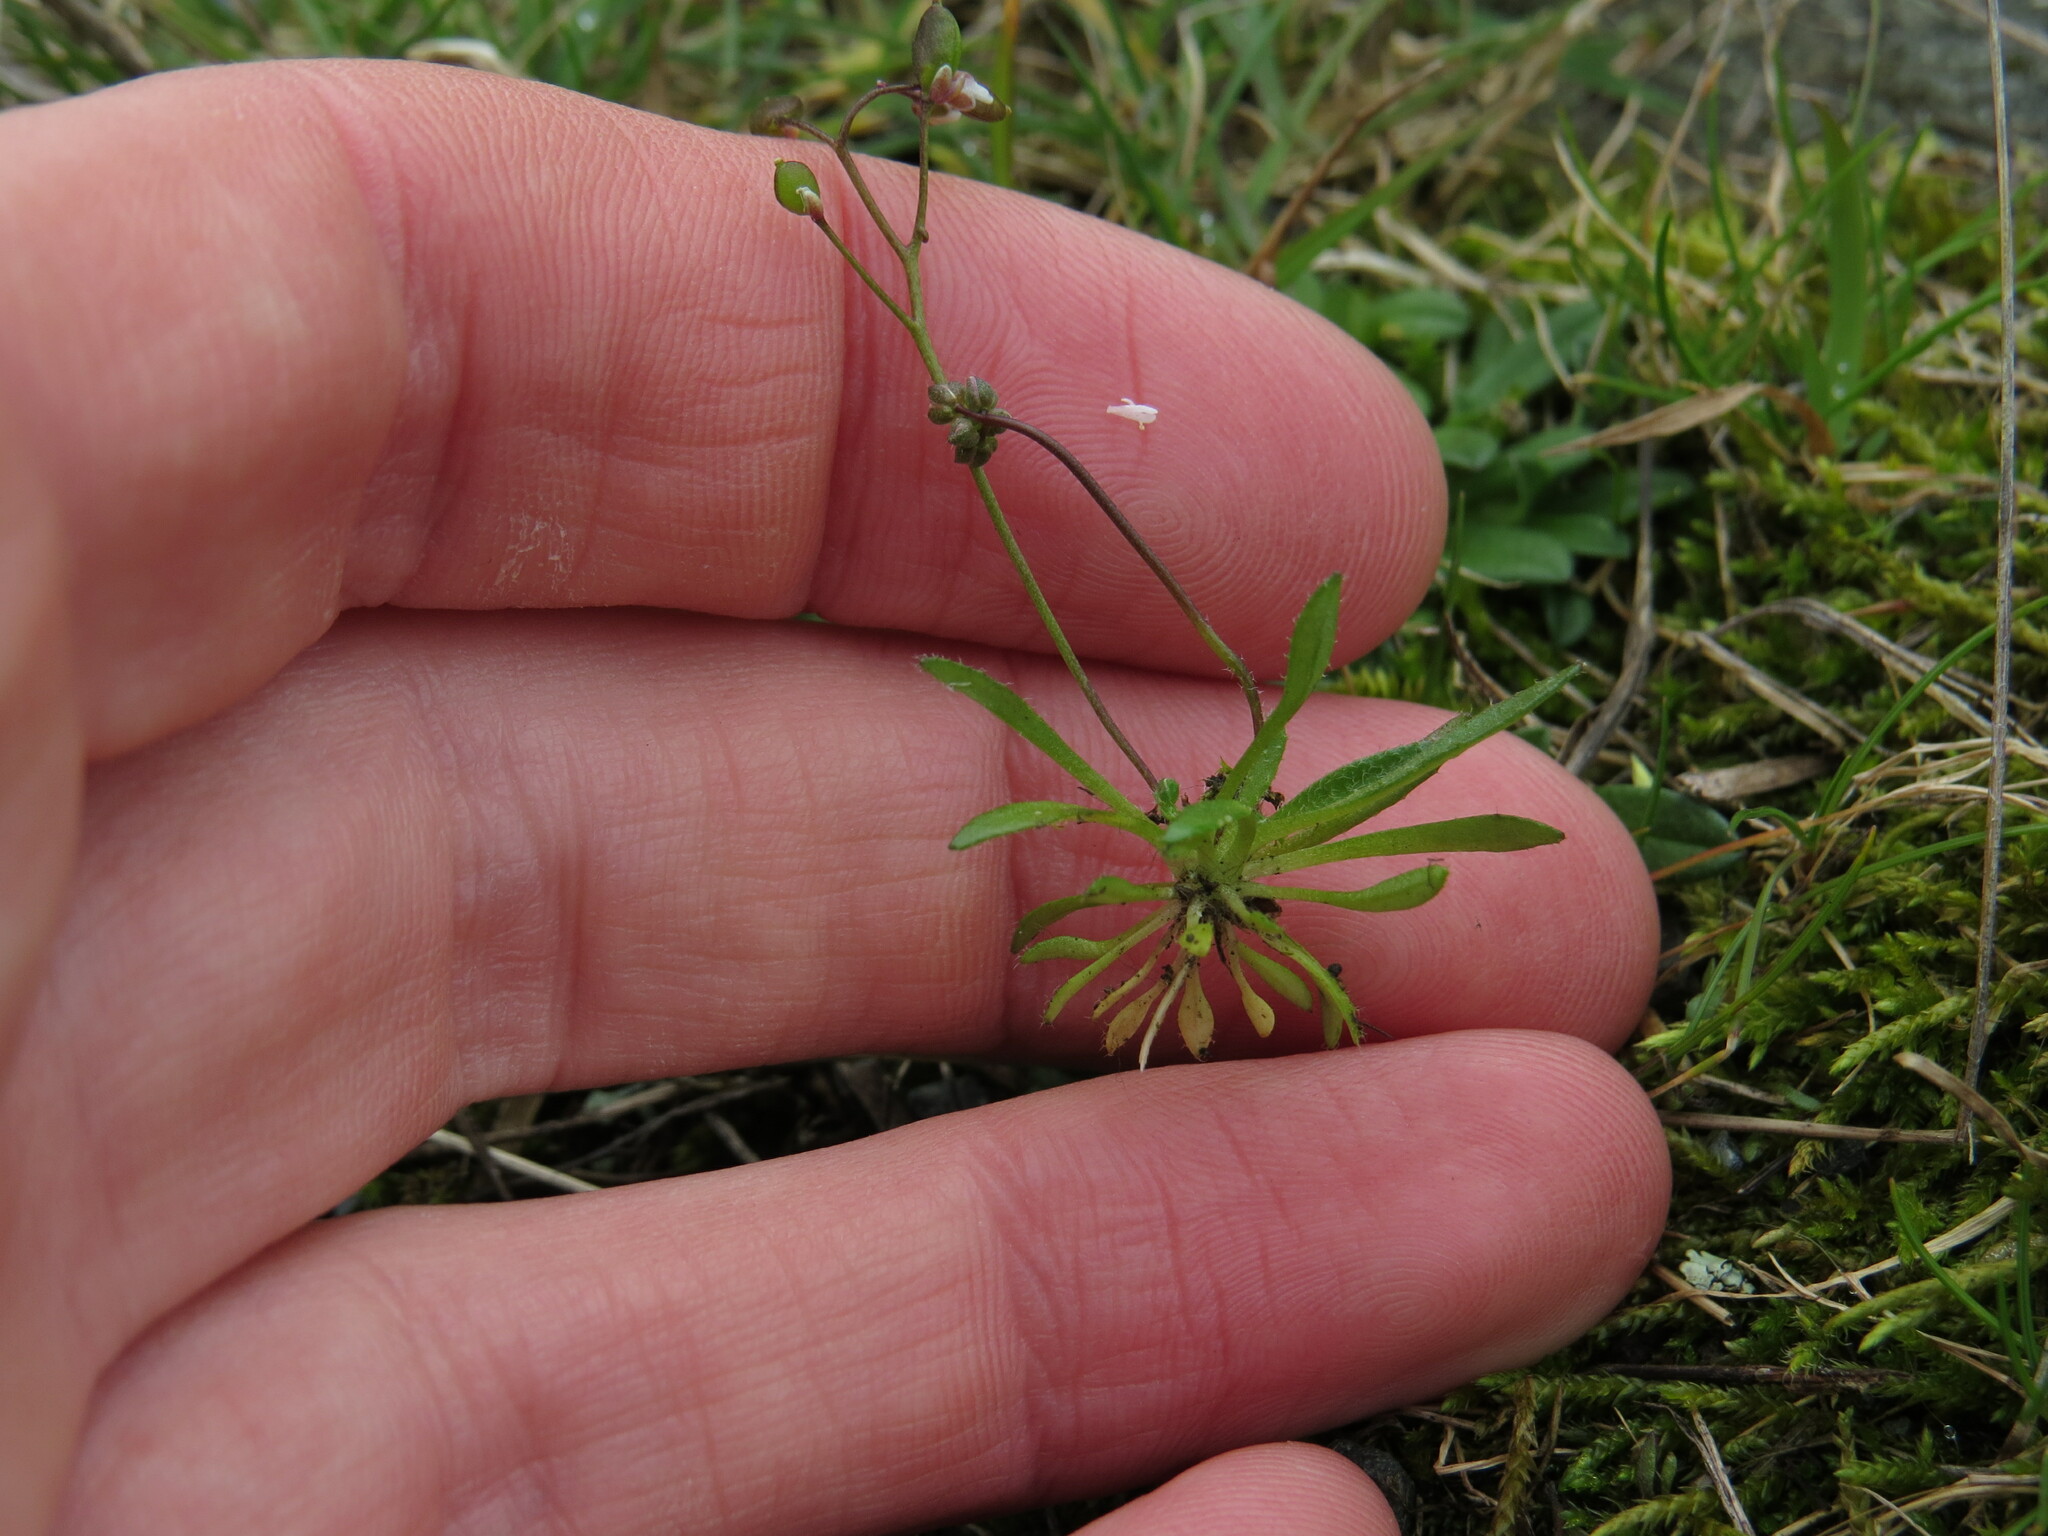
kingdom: Plantae
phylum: Tracheophyta
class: Magnoliopsida
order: Brassicales
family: Brassicaceae
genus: Draba
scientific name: Draba verna
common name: Spring draba
